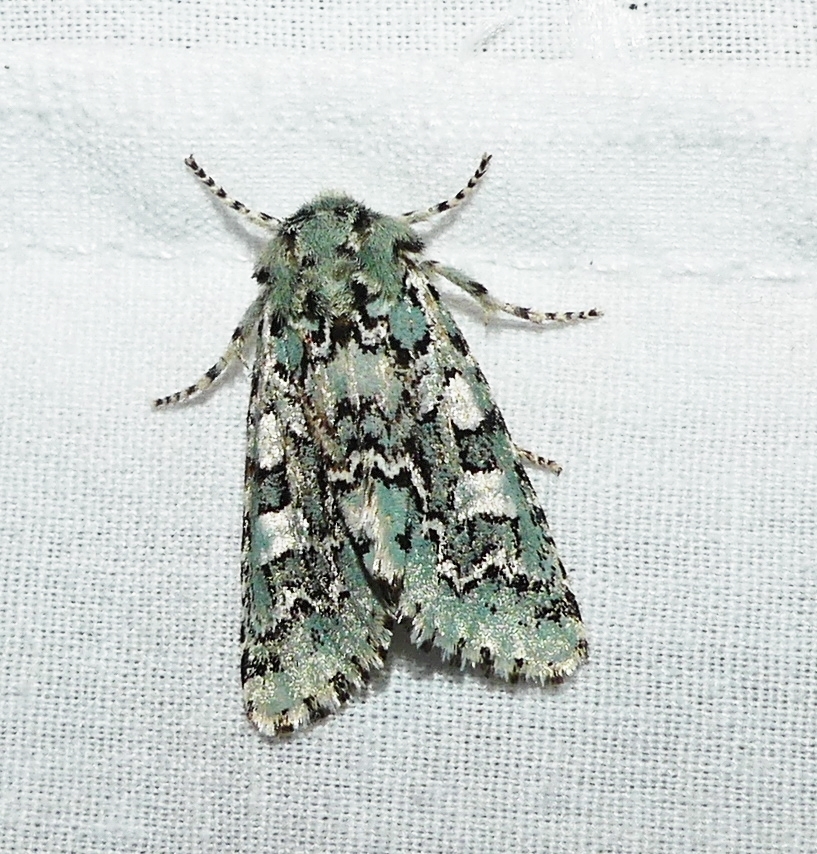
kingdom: Animalia
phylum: Arthropoda
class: Insecta
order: Lepidoptera
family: Noctuidae
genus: Feralia
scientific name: Feralia comstocki
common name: Comstock's sallow
